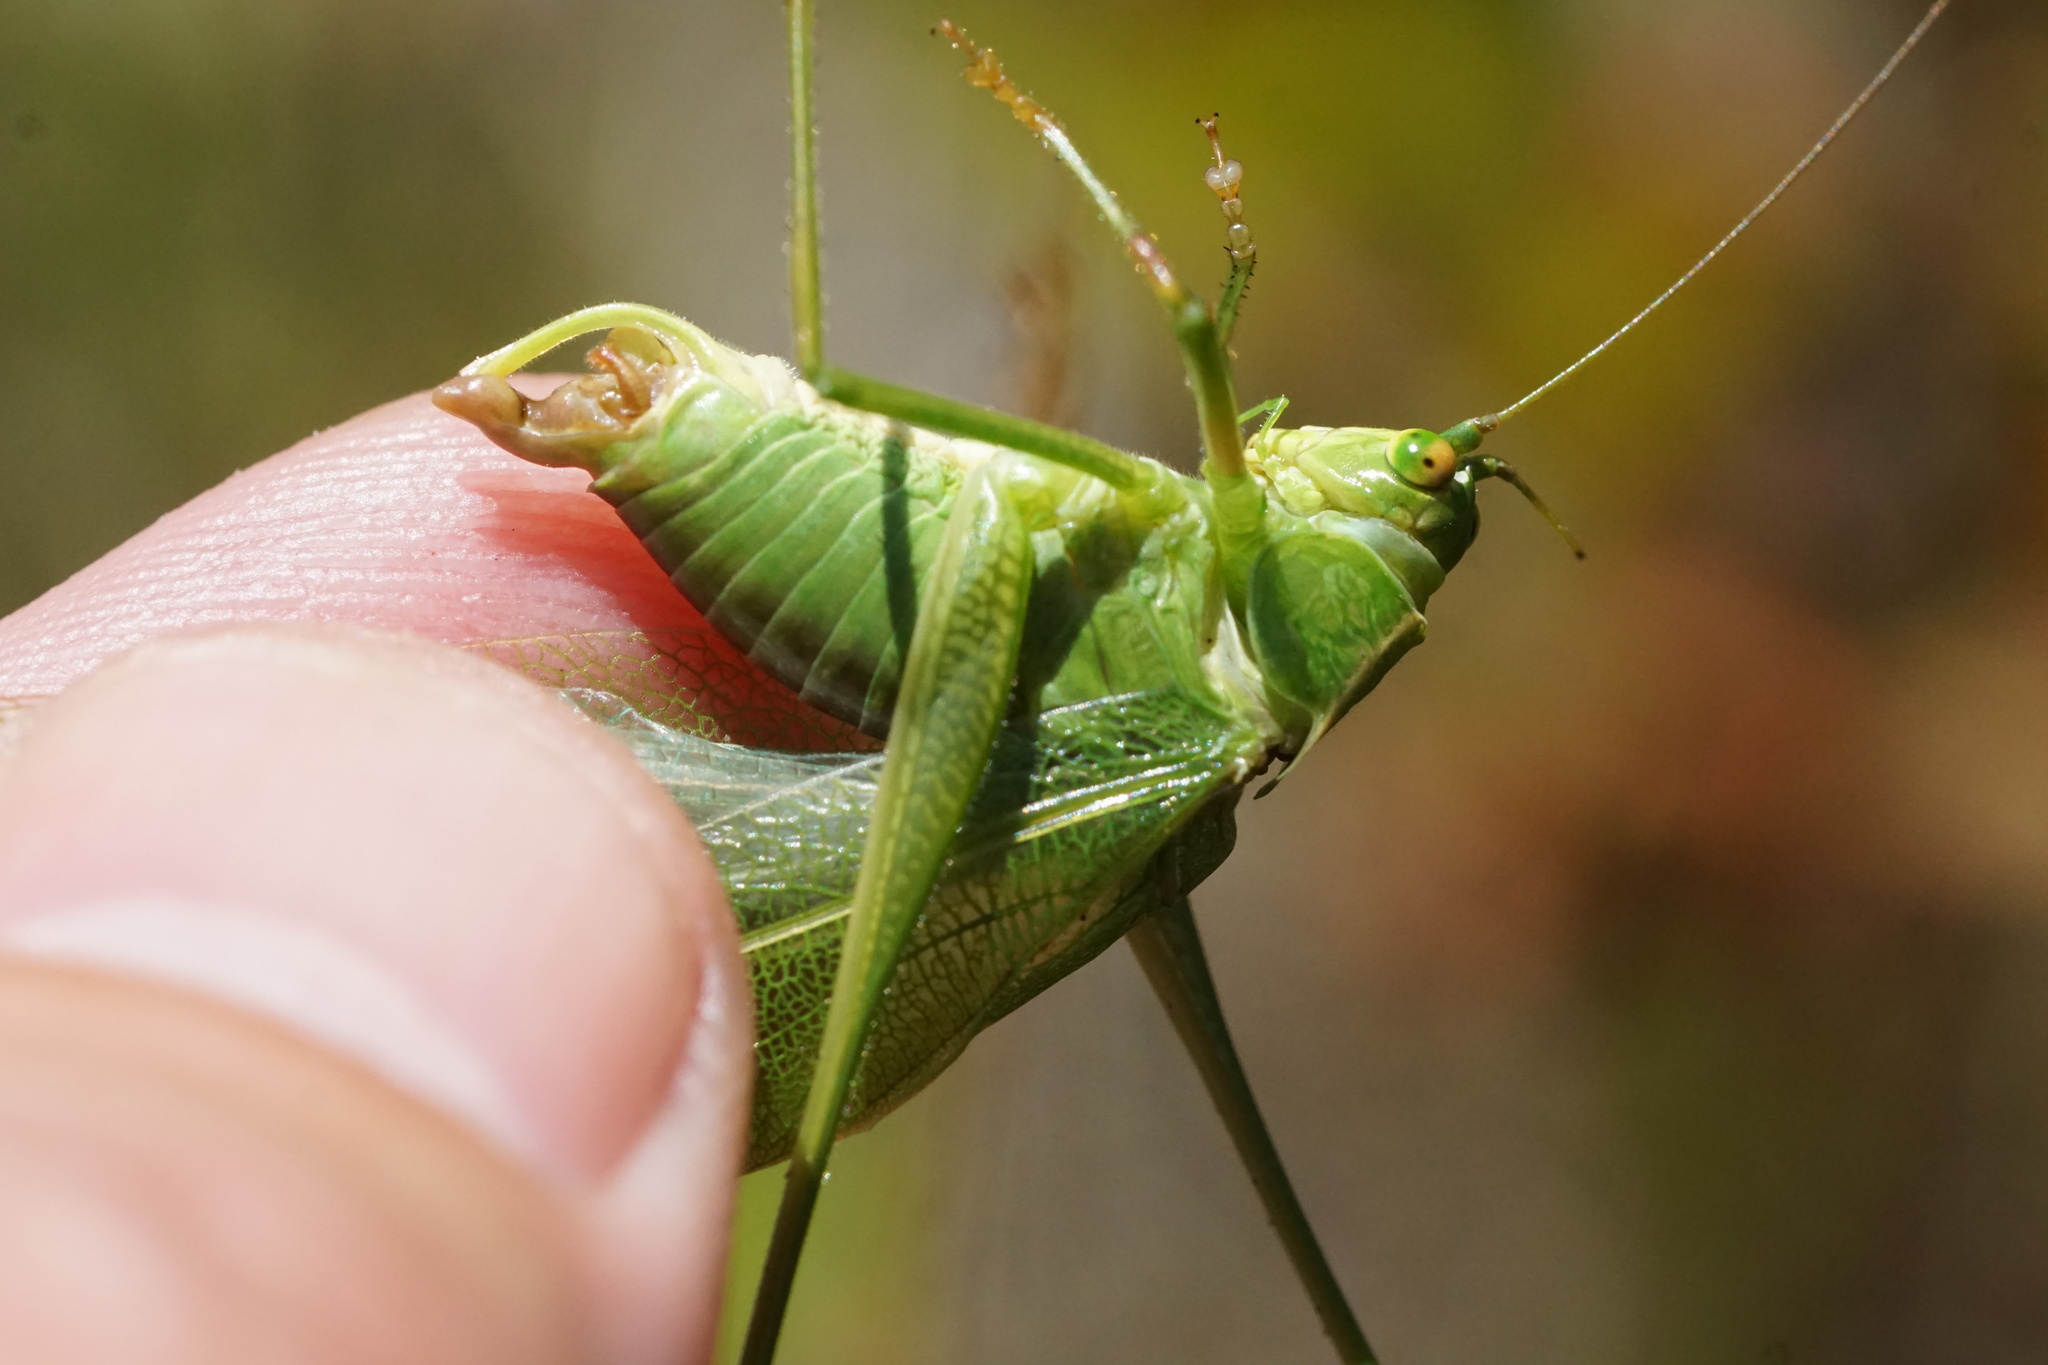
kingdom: Animalia
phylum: Arthropoda
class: Insecta
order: Orthoptera
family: Tettigoniidae
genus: Scudderia
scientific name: Scudderia furcata
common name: Fork-tailed bush katydid
